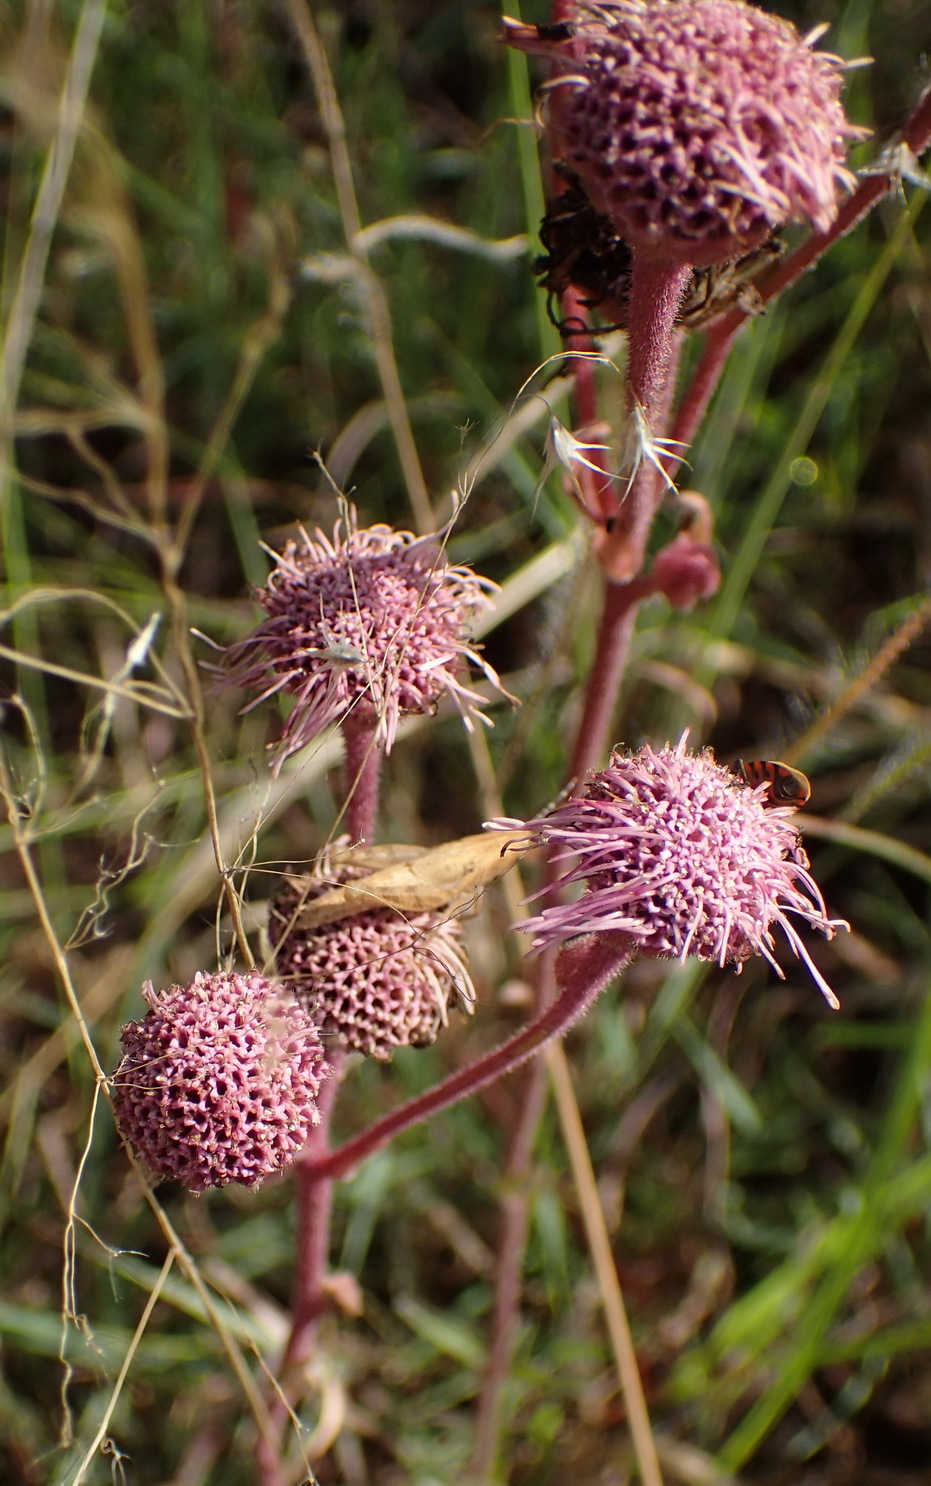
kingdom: Plantae
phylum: Tracheophyta
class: Magnoliopsida
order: Asterales
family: Asteraceae
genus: Campuloclinium
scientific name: Campuloclinium macrocephalum
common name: Pompomweed
